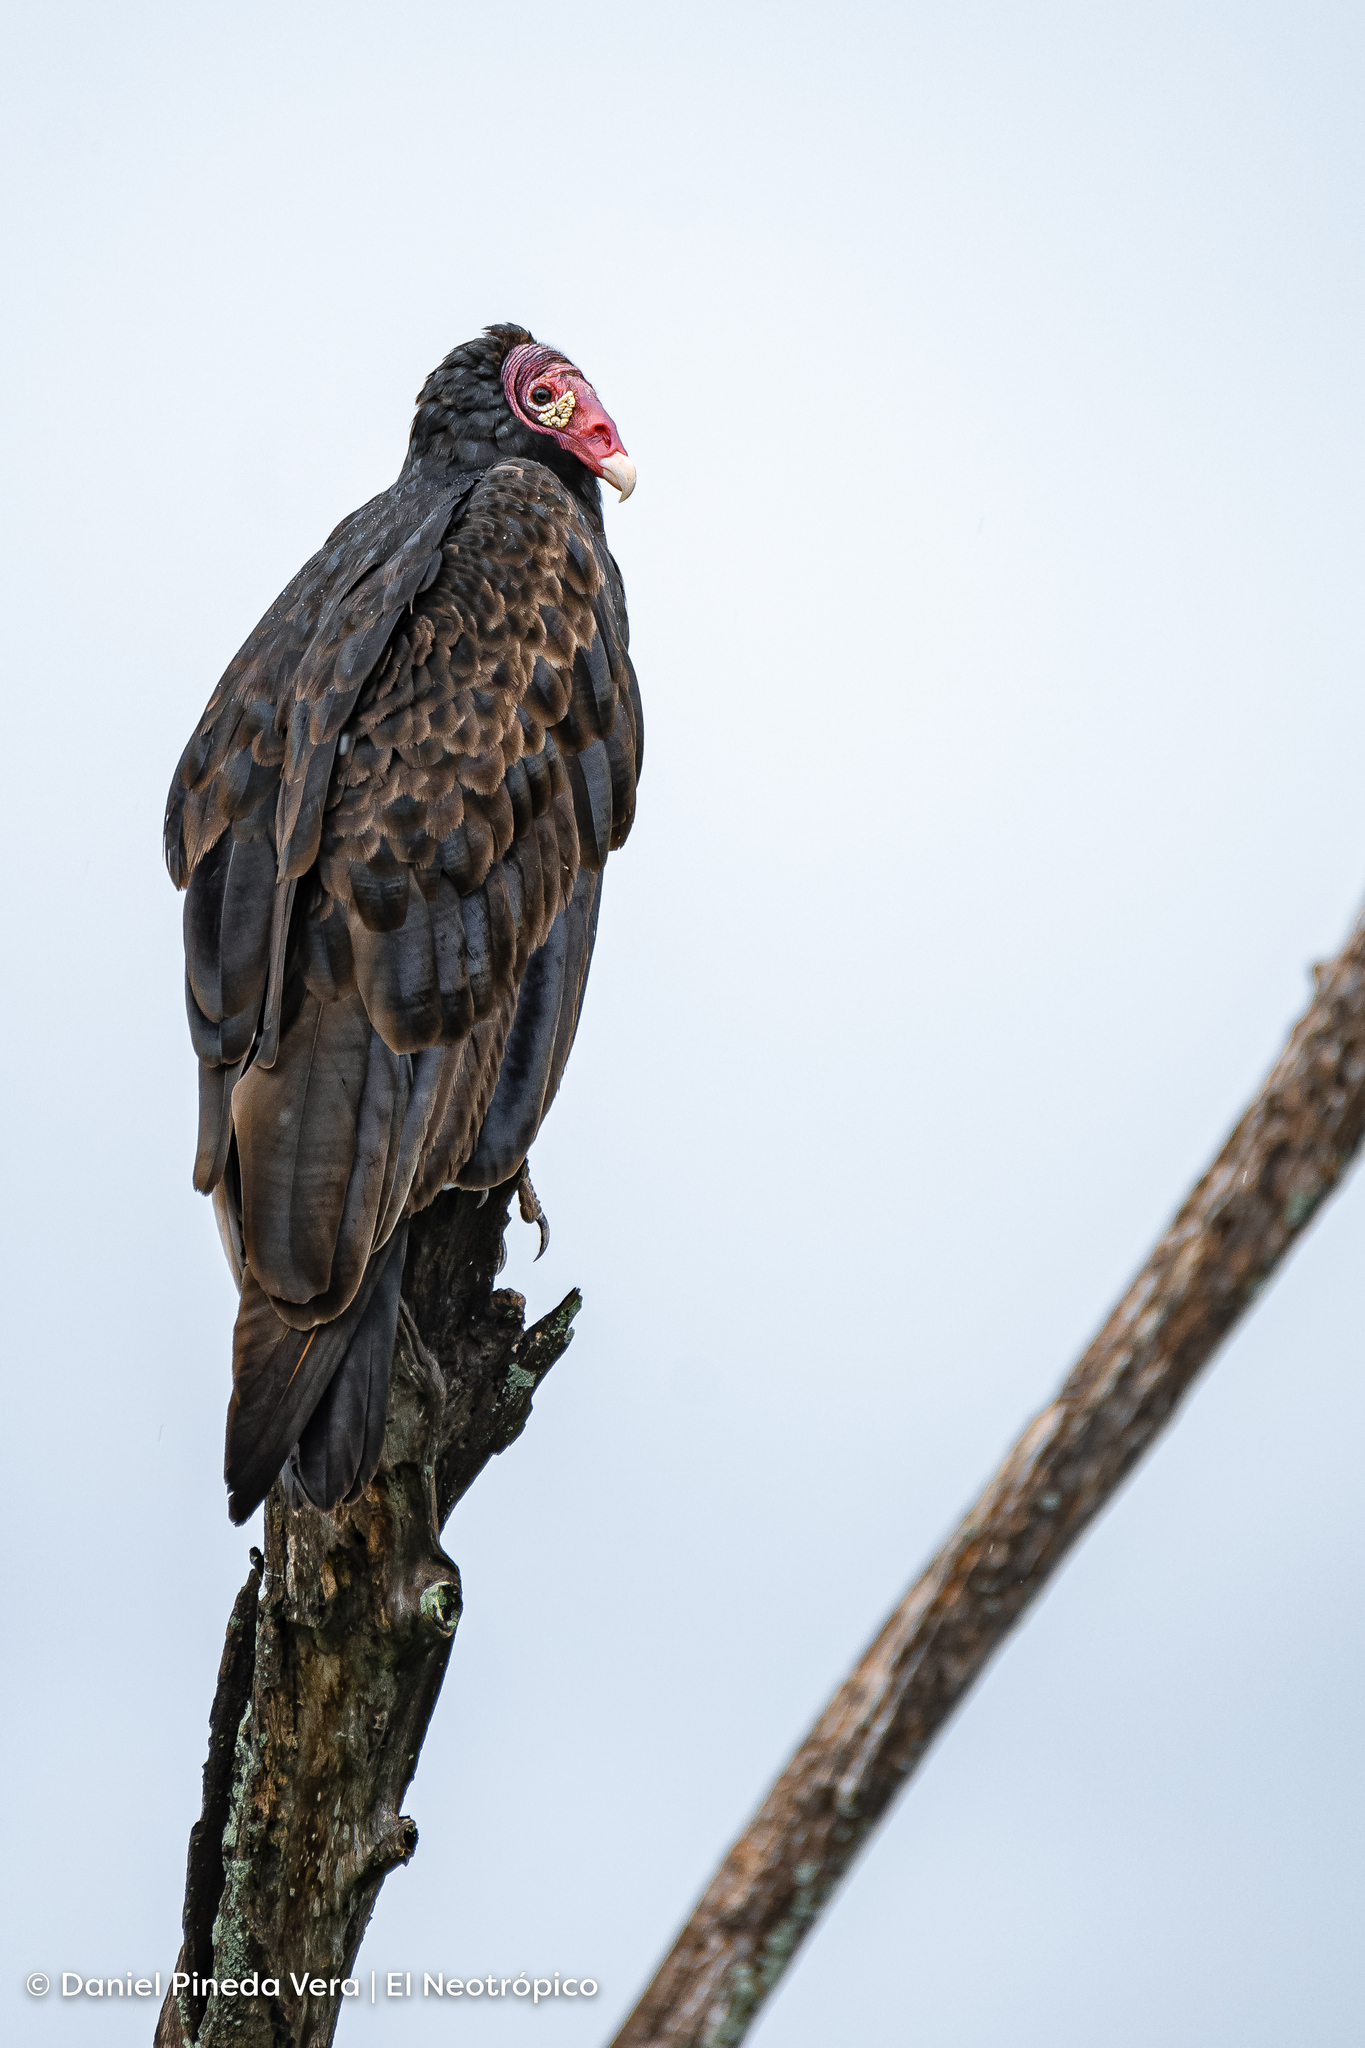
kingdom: Animalia
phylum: Chordata
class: Aves
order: Accipitriformes
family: Cathartidae
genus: Cathartes
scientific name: Cathartes aura
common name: Turkey vulture
